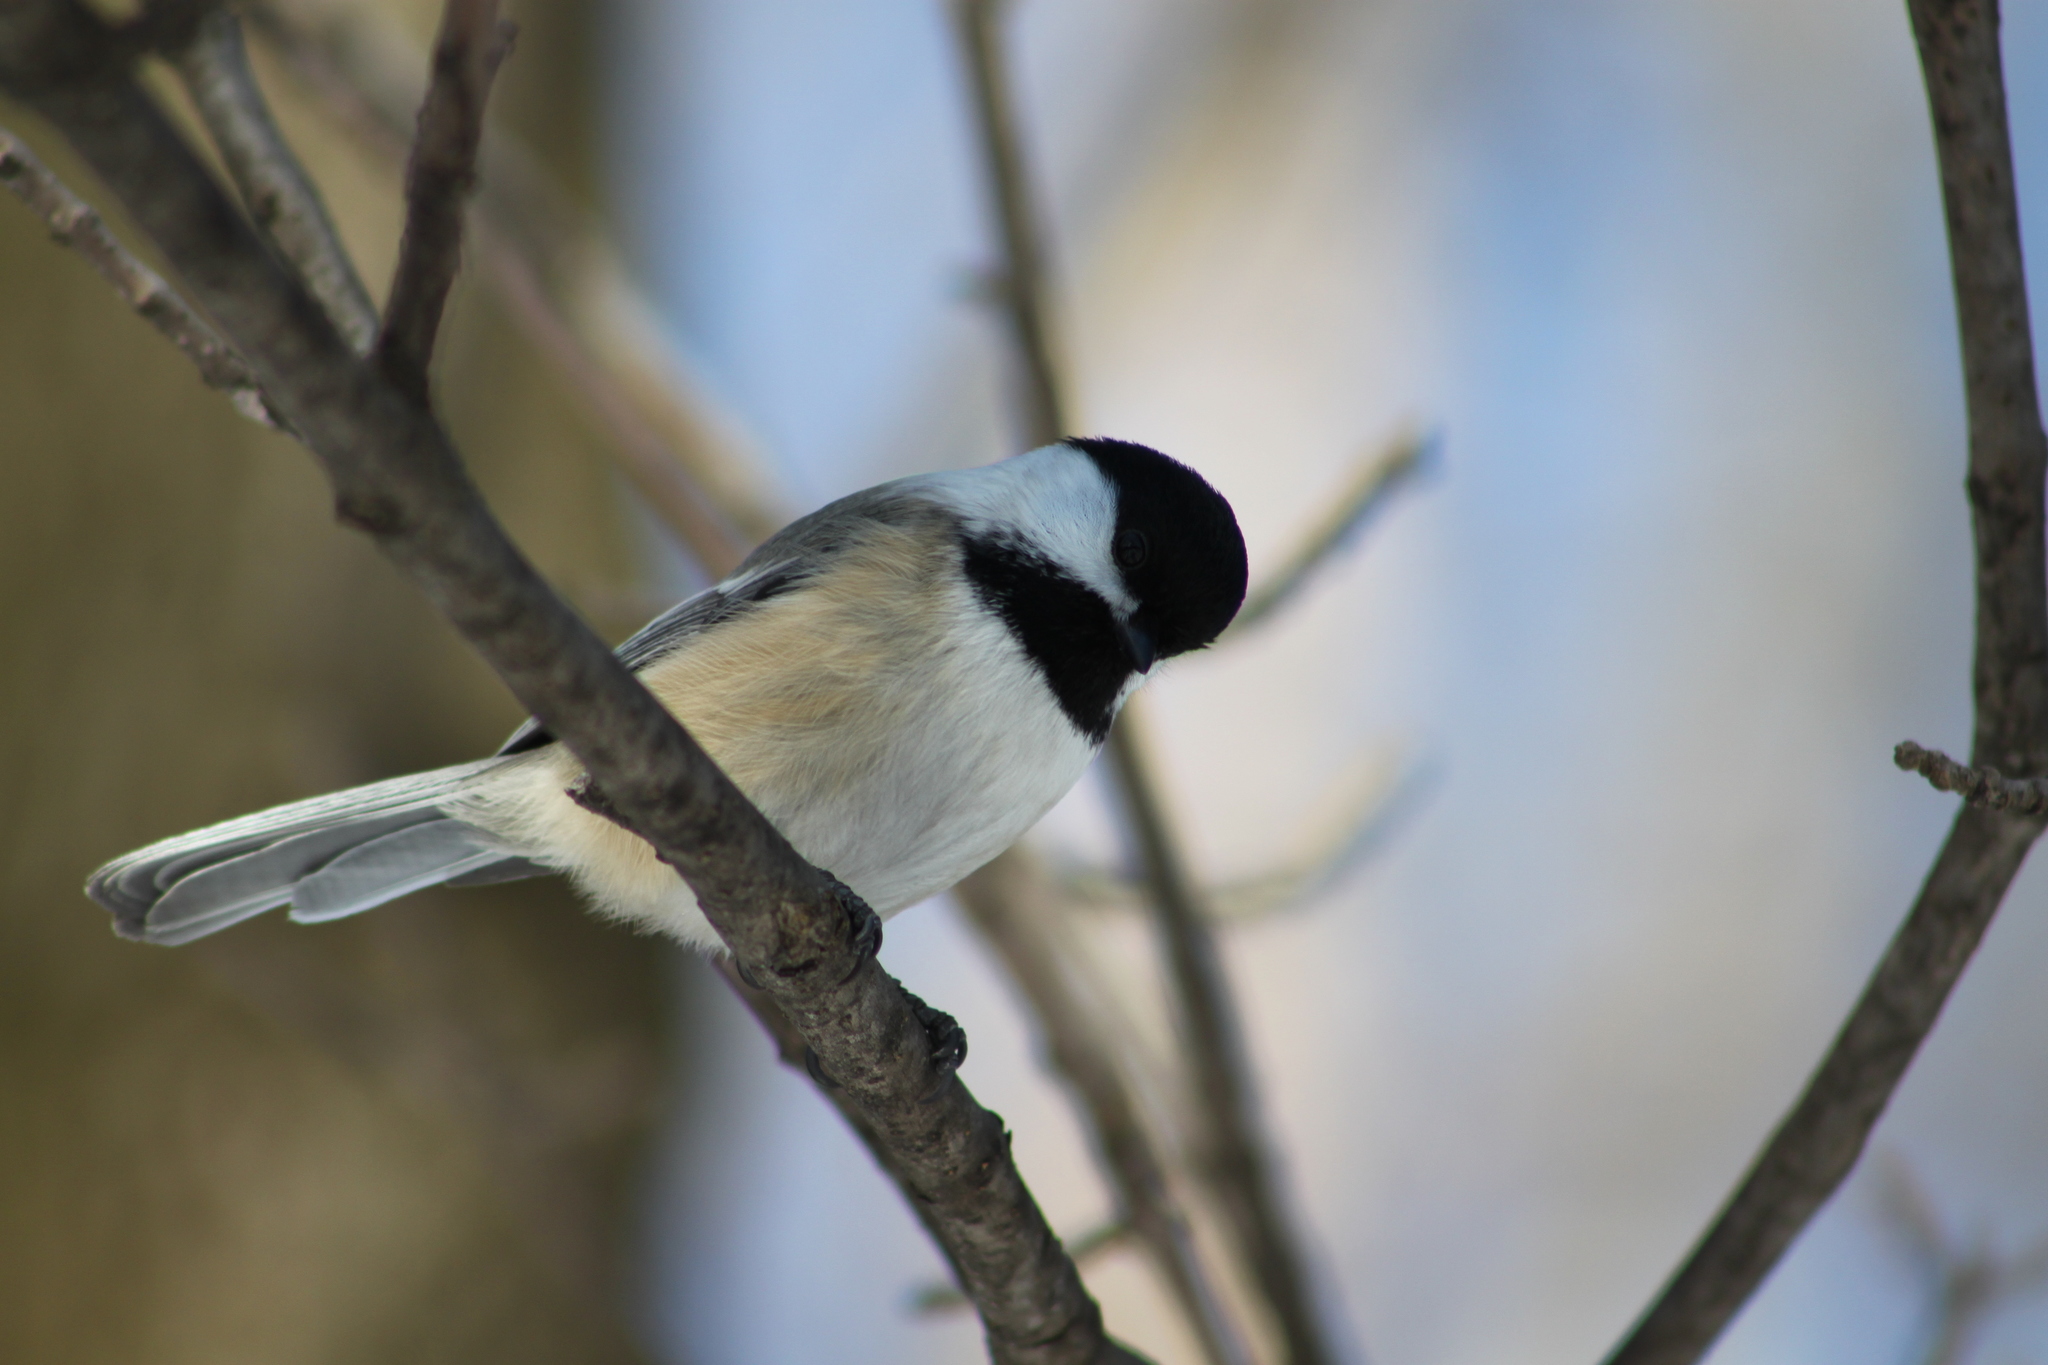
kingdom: Animalia
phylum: Chordata
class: Aves
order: Passeriformes
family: Paridae
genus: Poecile
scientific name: Poecile atricapillus
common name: Black-capped chickadee
